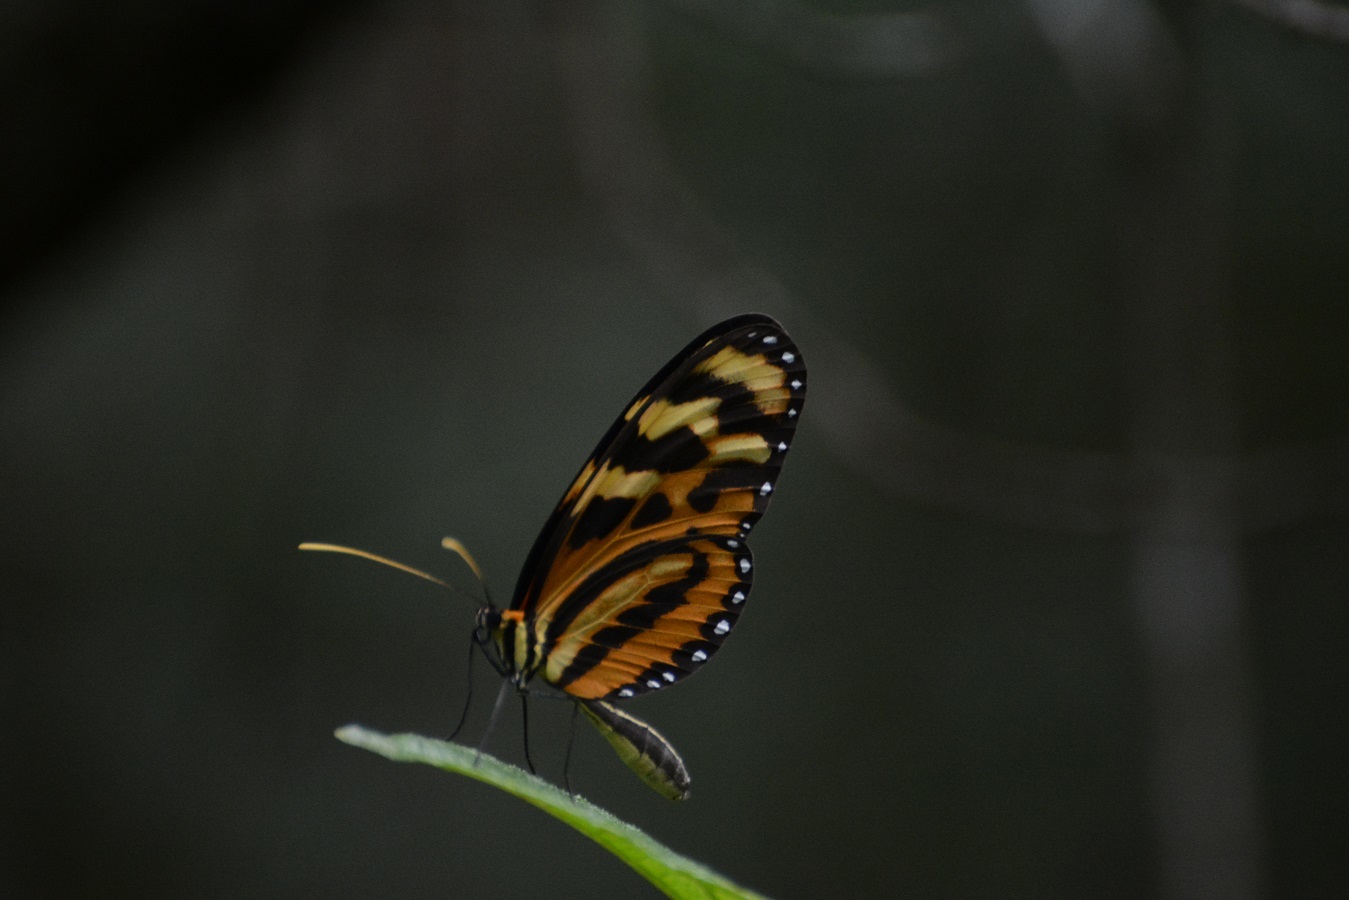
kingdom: Animalia
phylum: Arthropoda
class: Insecta
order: Lepidoptera
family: Nymphalidae
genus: Mechanitis
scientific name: Mechanitis lysimnia
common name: Lysimnia tigerwing
